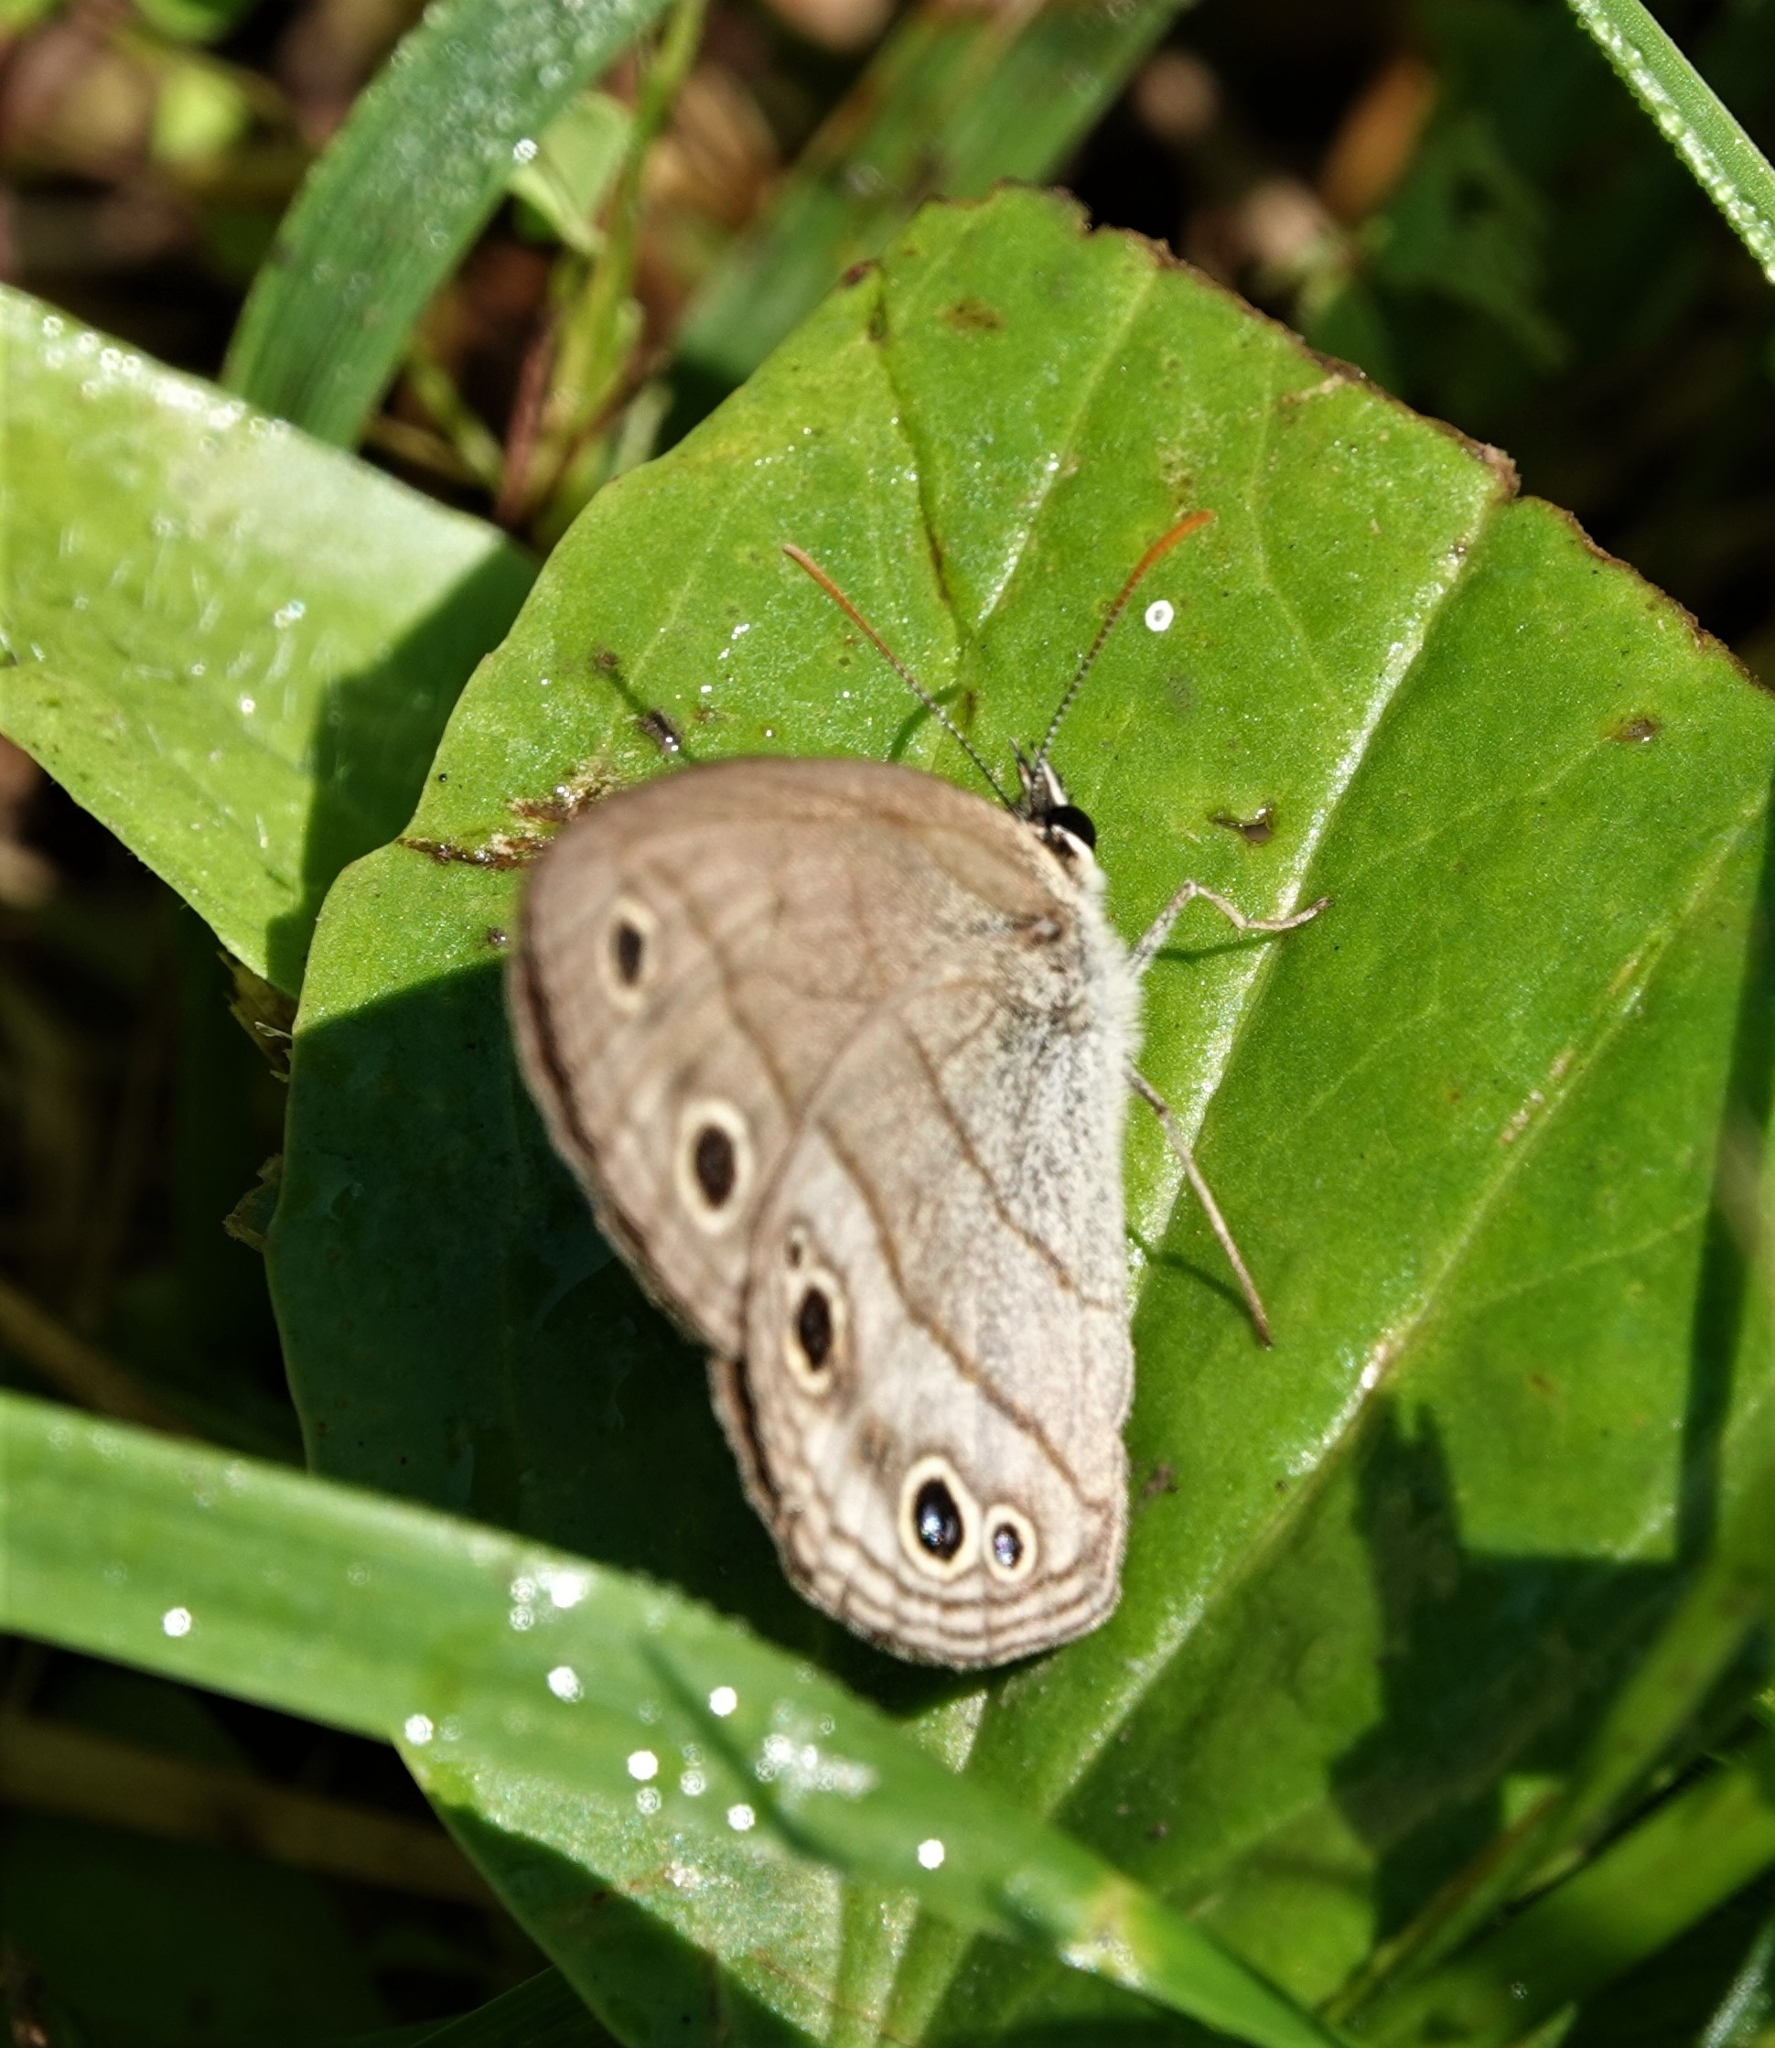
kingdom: Animalia
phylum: Arthropoda
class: Insecta
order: Lepidoptera
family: Nymphalidae
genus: Euptychia
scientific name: Euptychia cymela
